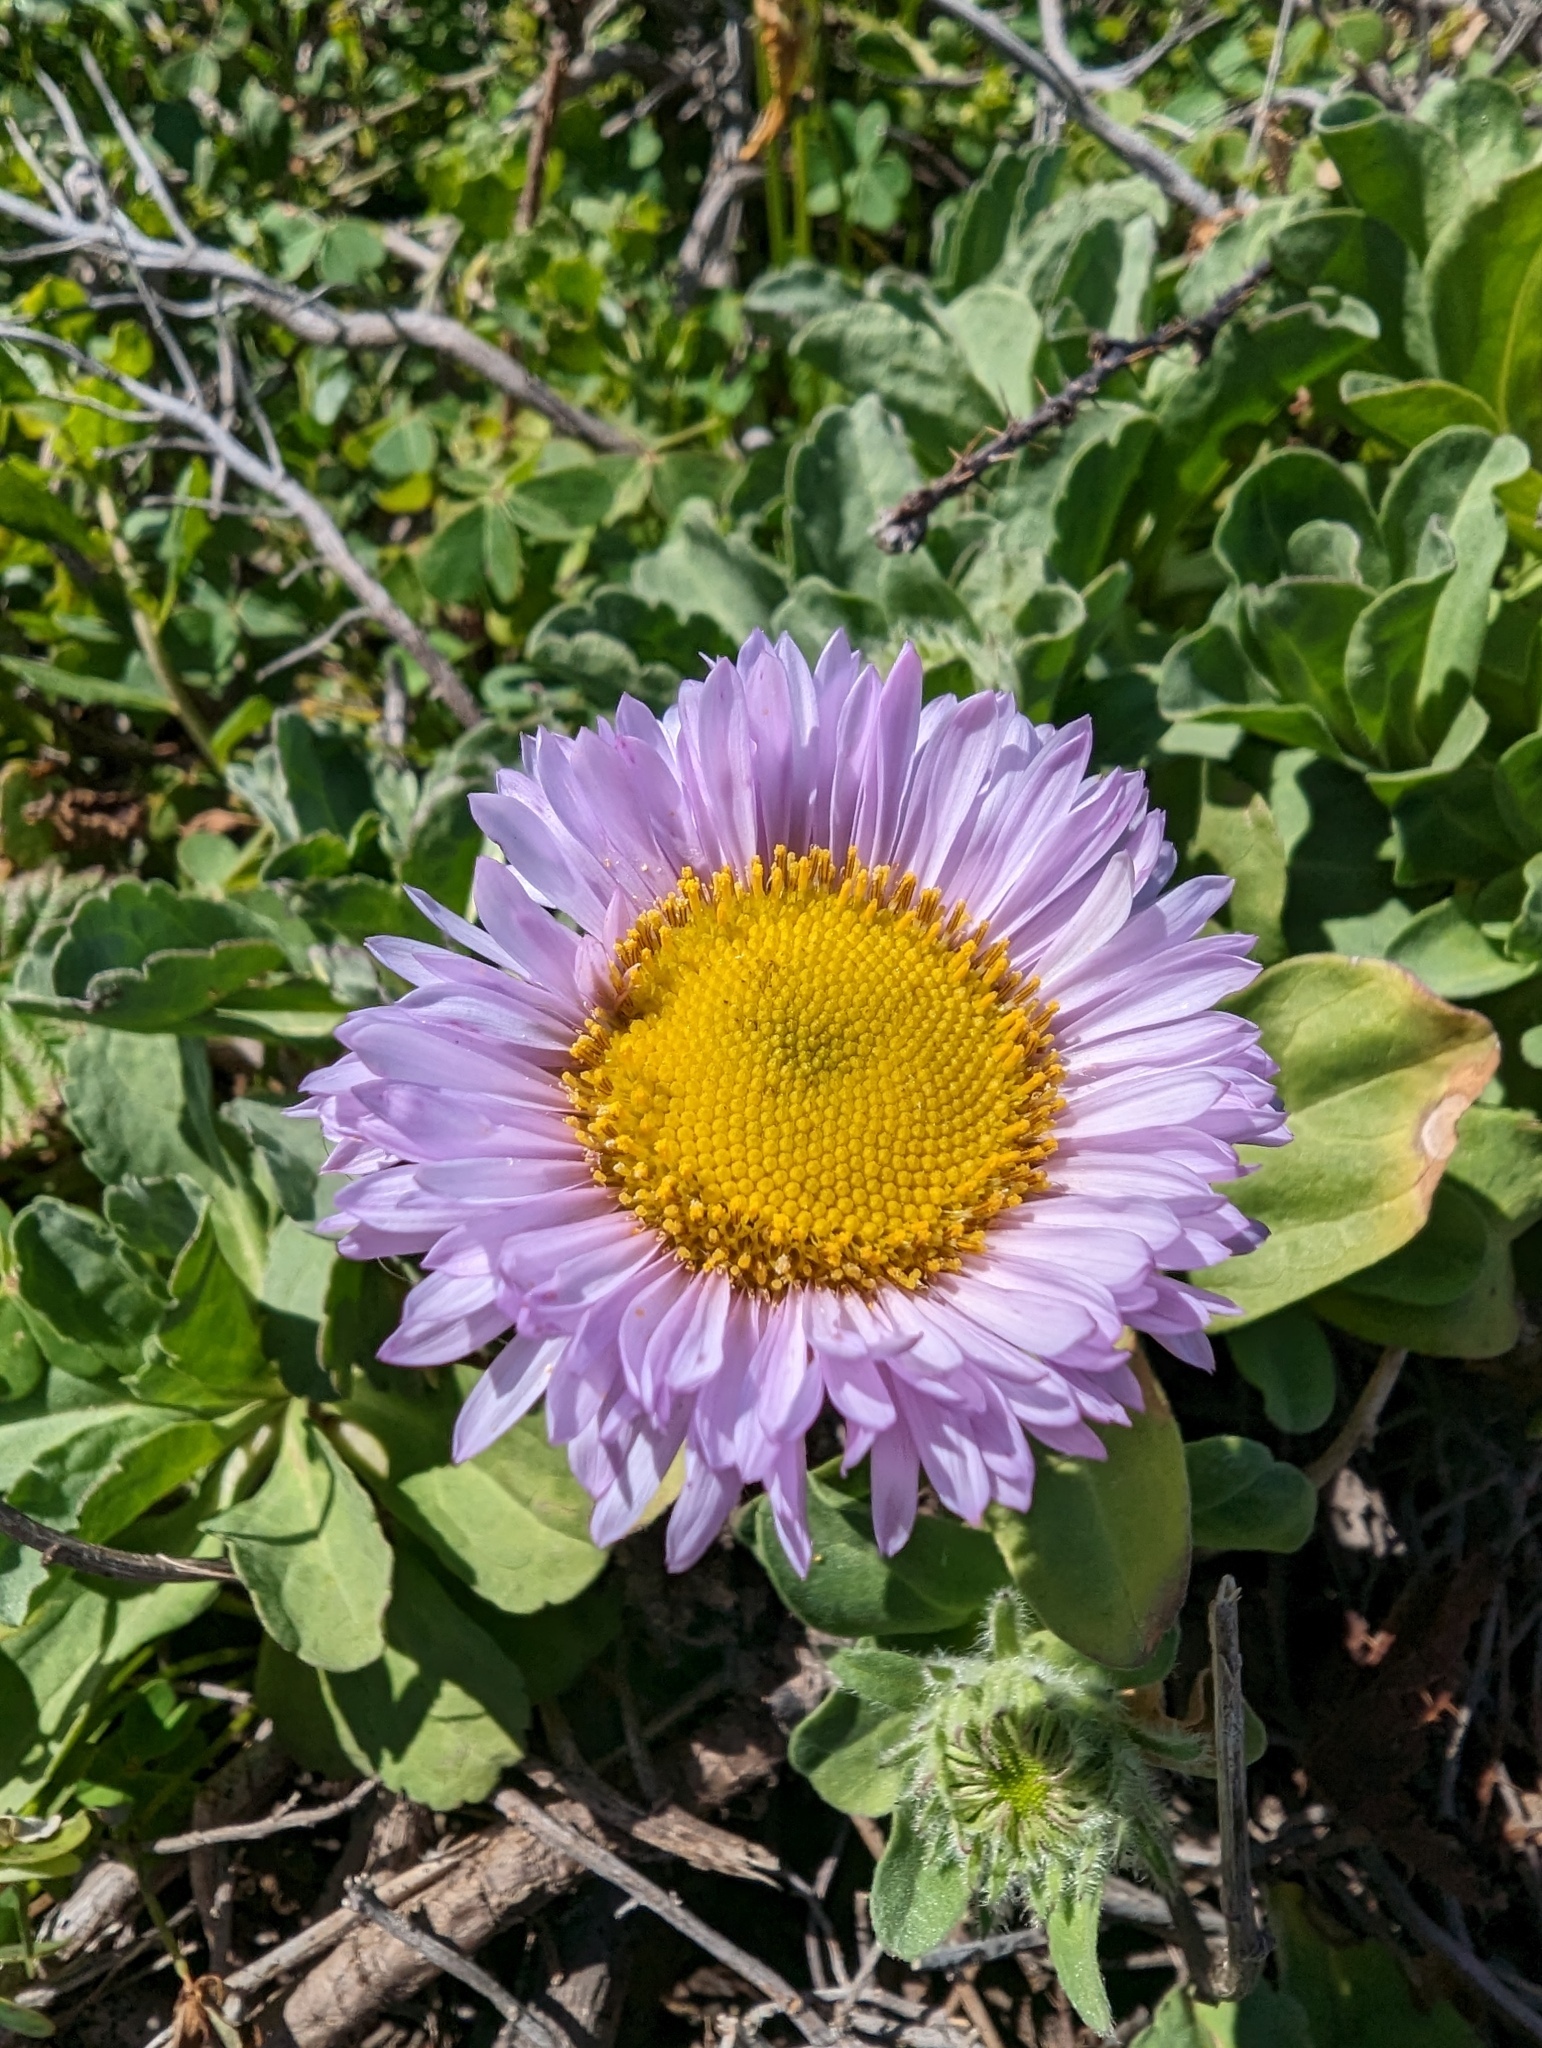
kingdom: Plantae
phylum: Tracheophyta
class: Magnoliopsida
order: Asterales
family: Asteraceae
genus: Erigeron
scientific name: Erigeron glaucus
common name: Seaside daisy
